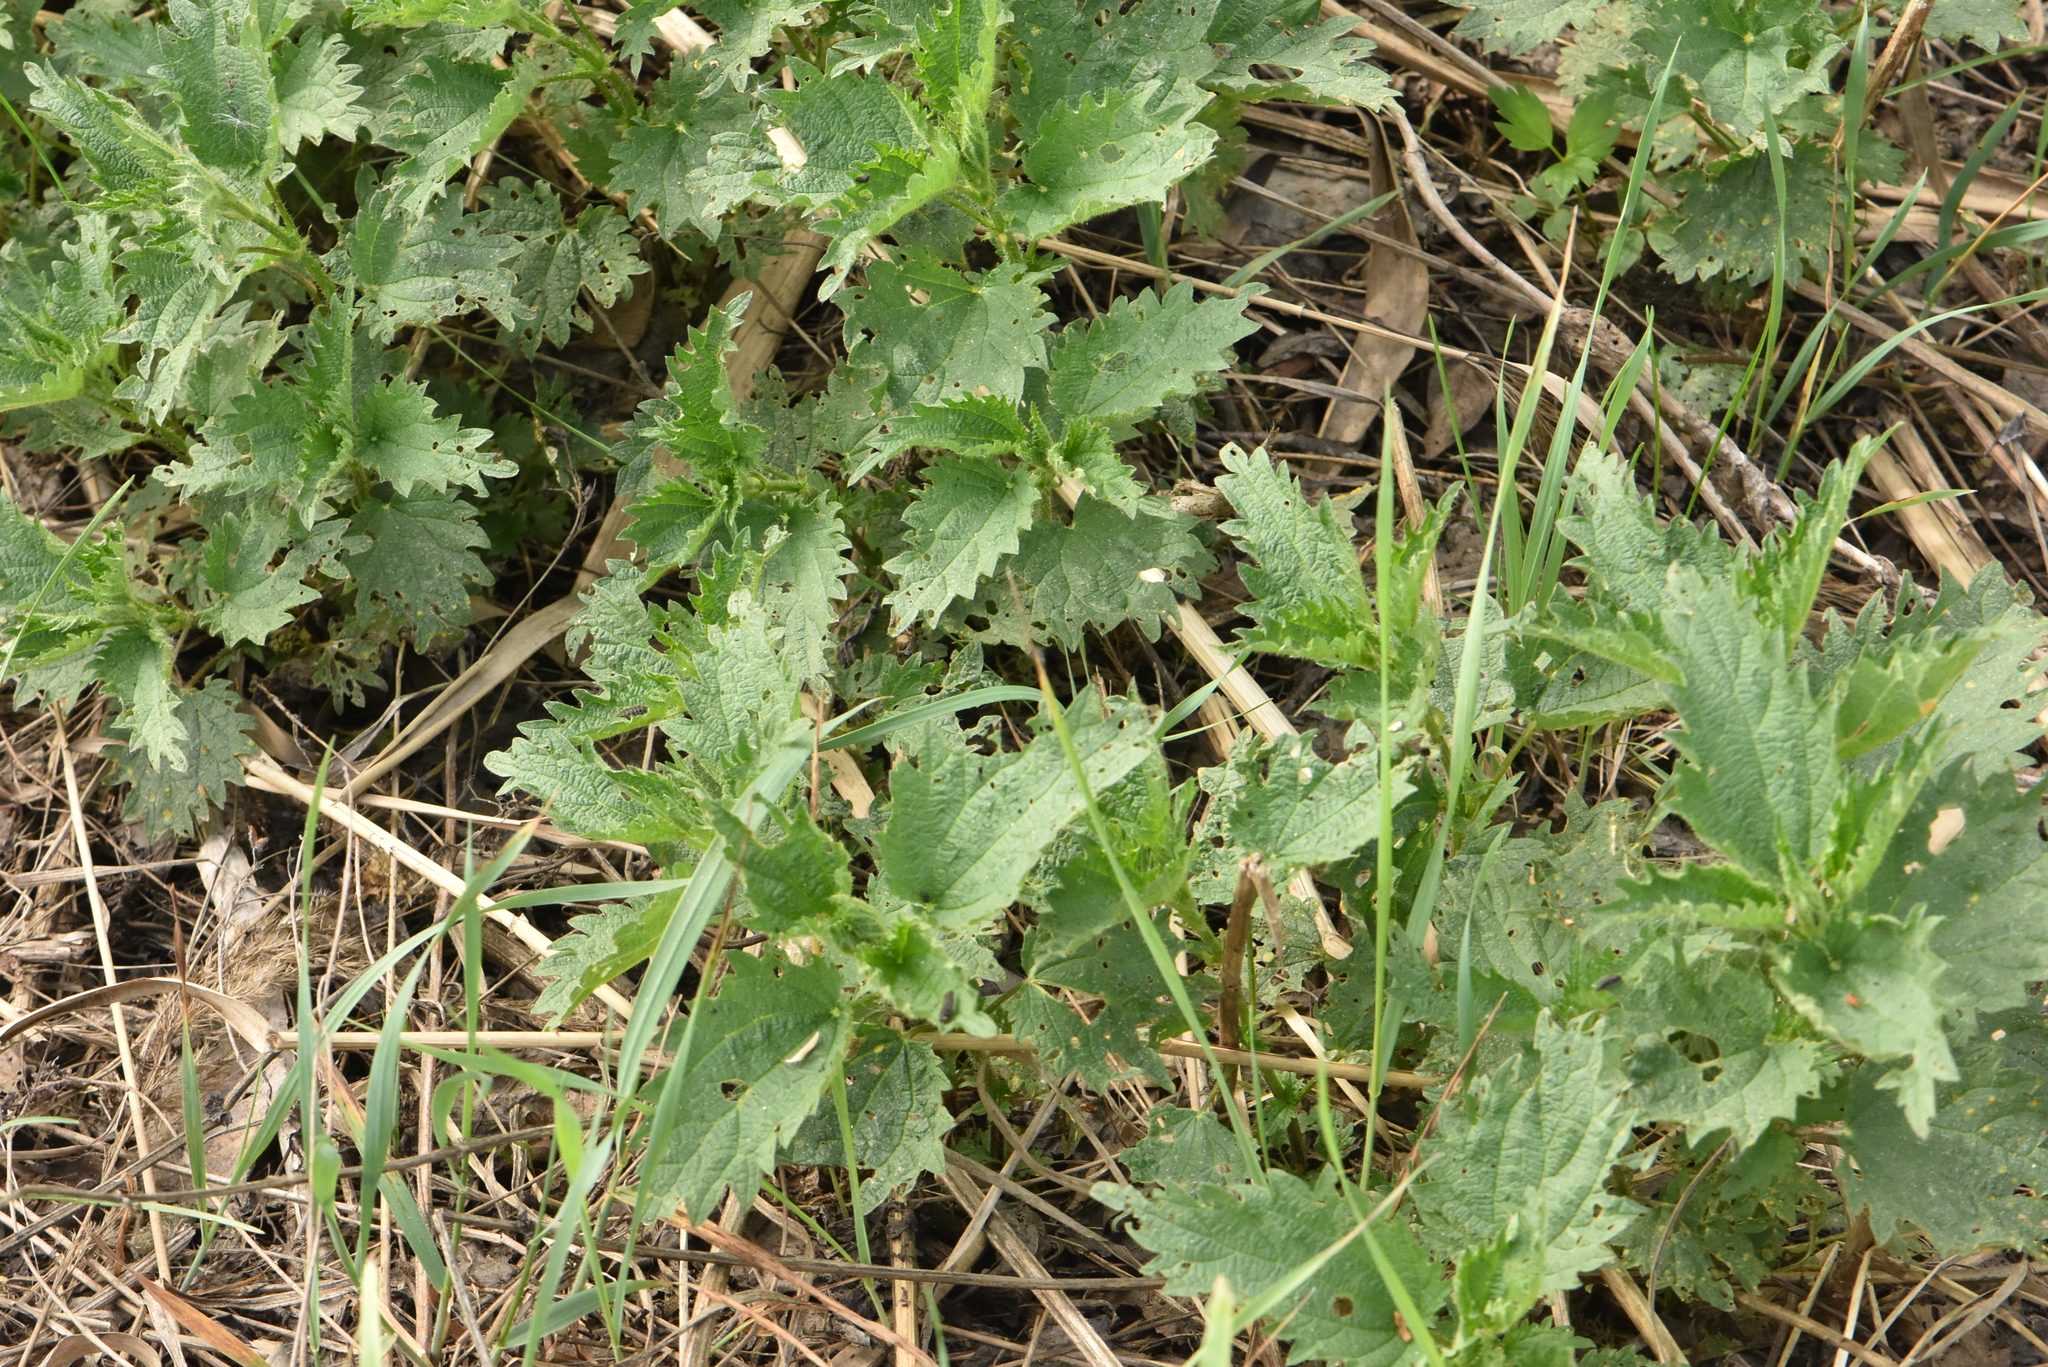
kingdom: Plantae
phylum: Tracheophyta
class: Magnoliopsida
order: Rosales
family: Urticaceae
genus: Urtica
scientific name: Urtica dioica
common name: Common nettle
